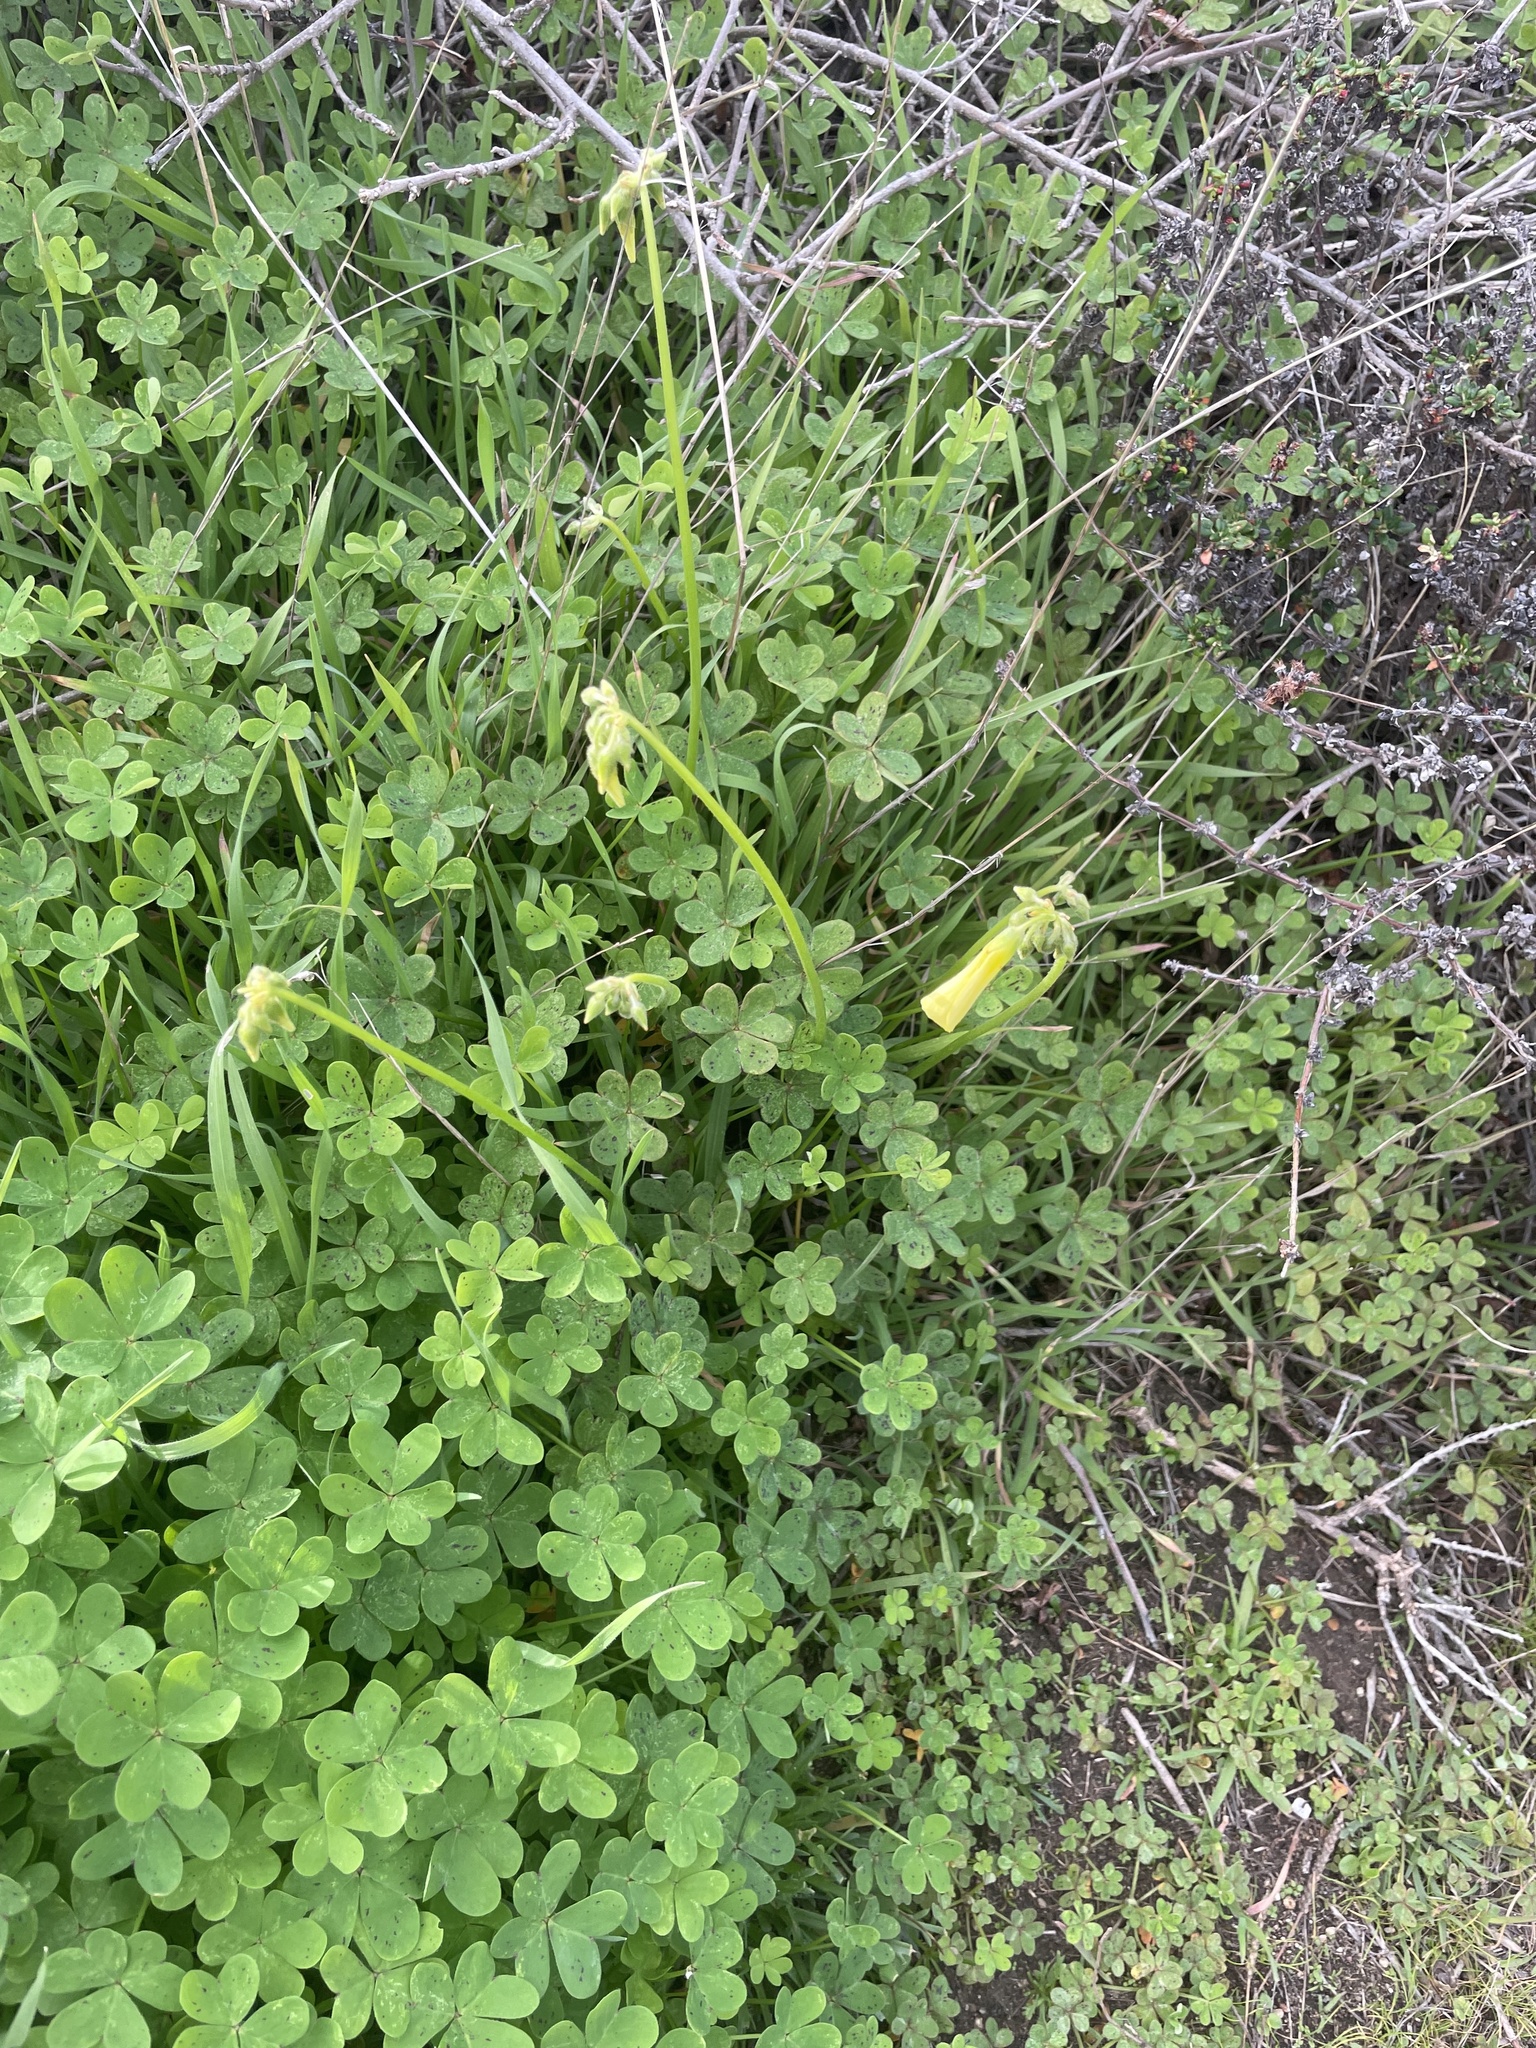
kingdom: Plantae
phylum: Tracheophyta
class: Magnoliopsida
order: Oxalidales
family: Oxalidaceae
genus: Oxalis
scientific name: Oxalis pes-caprae
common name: Bermuda-buttercup
